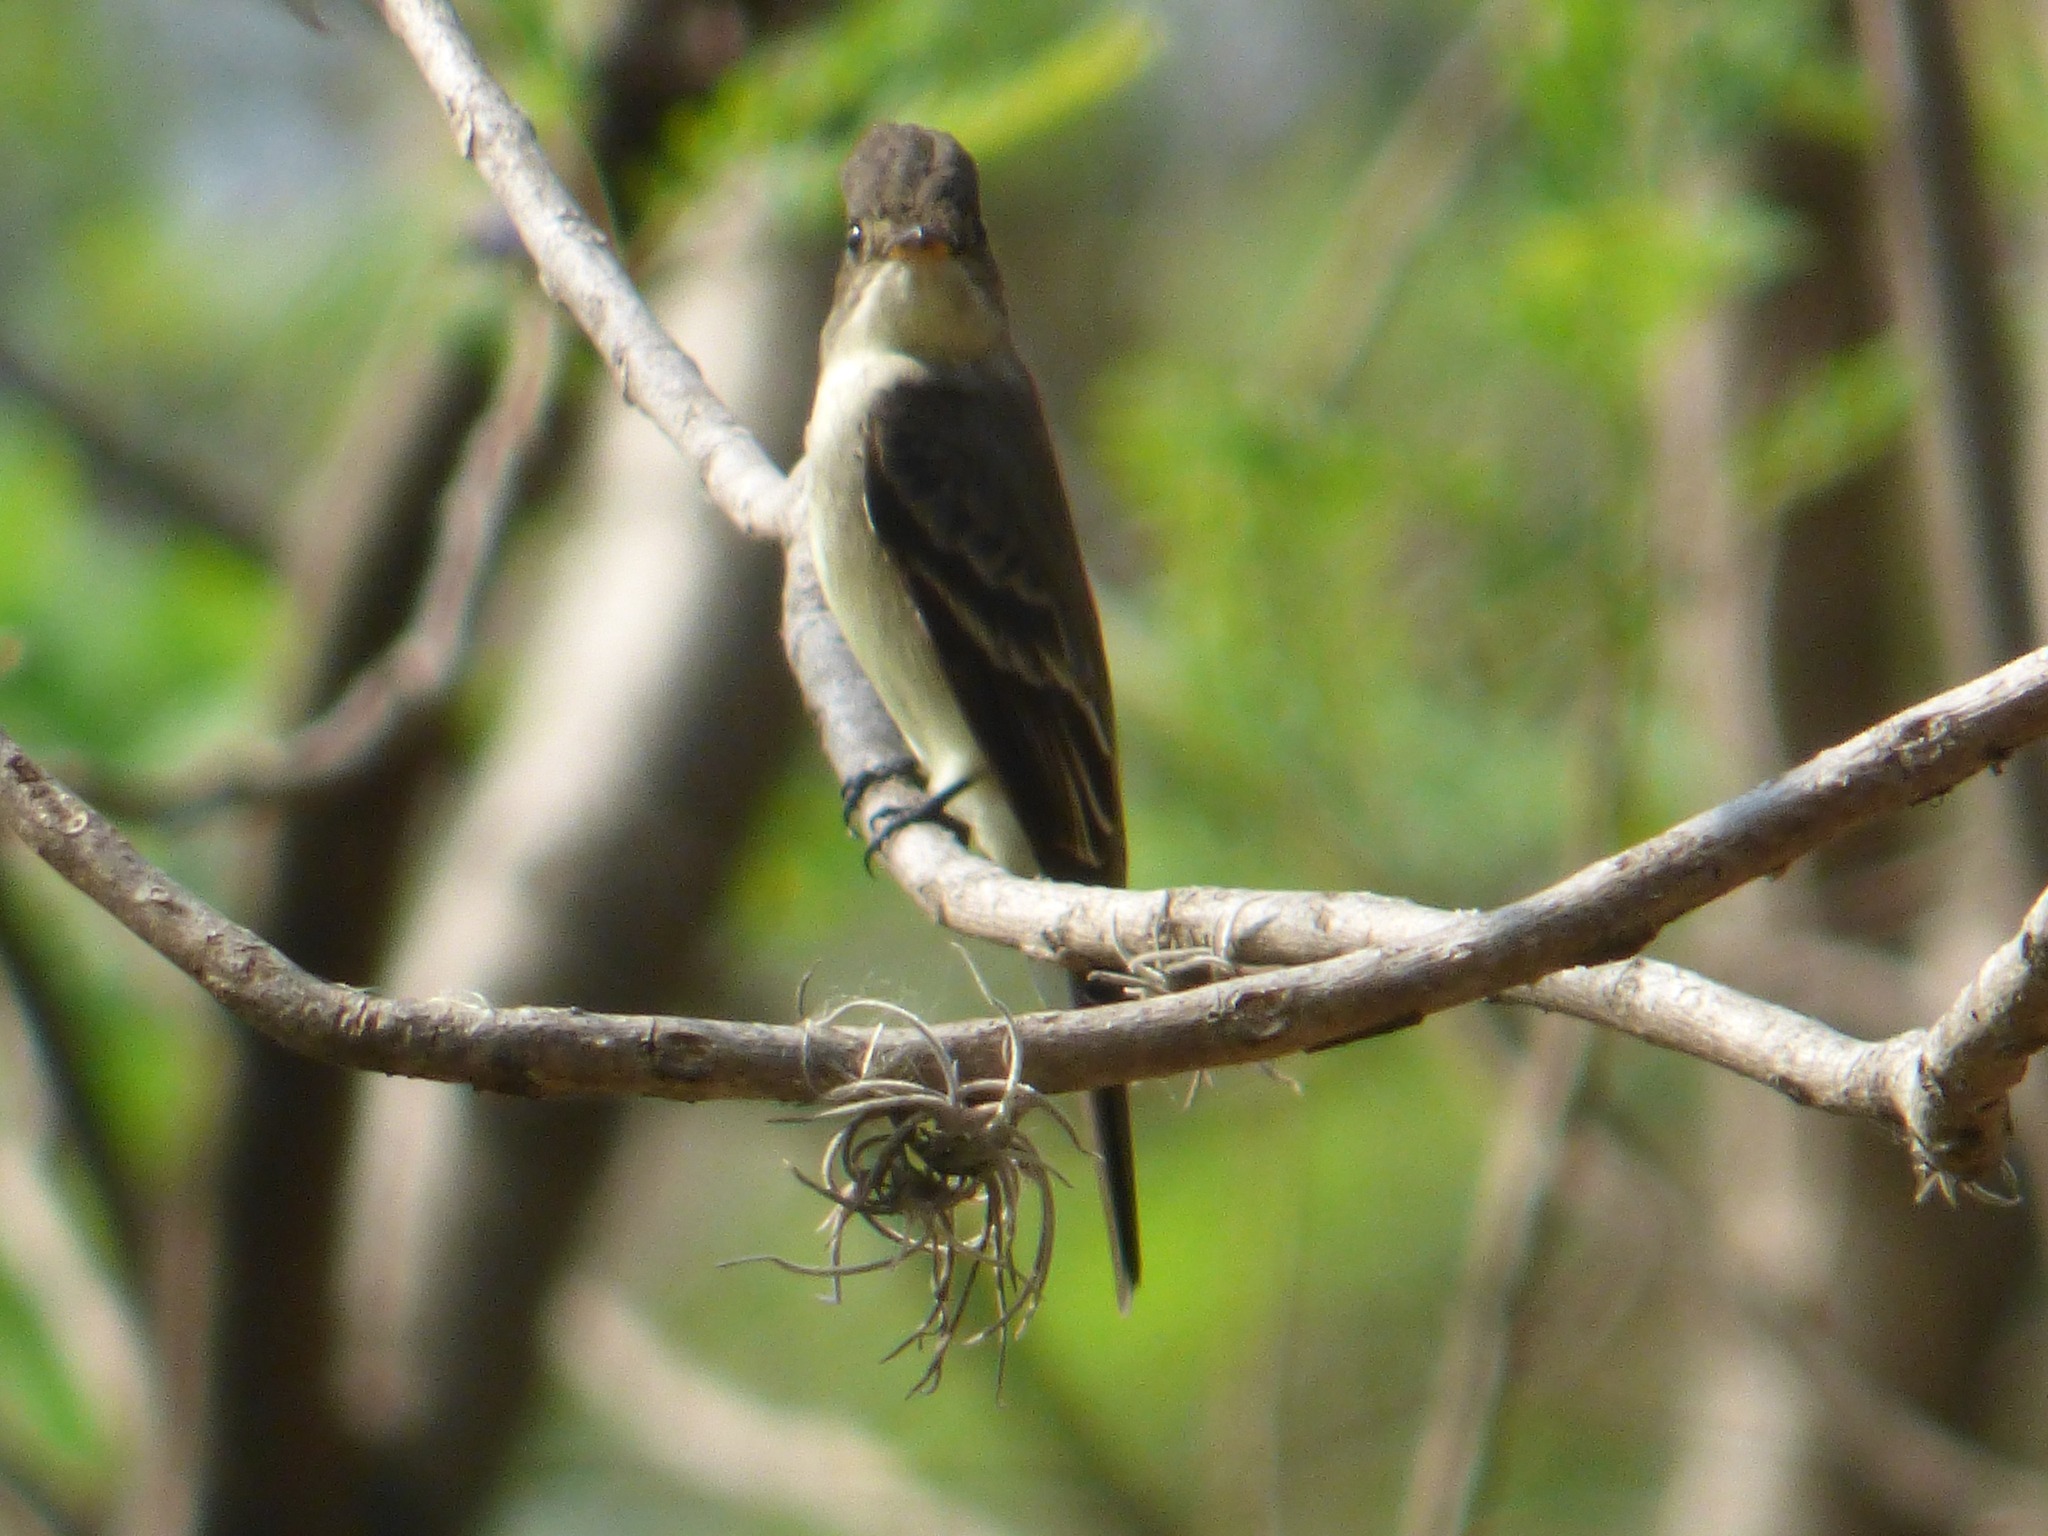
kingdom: Animalia
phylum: Chordata
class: Aves
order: Passeriformes
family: Tyrannidae
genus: Contopus
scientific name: Contopus sordidulus
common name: Western wood-pewee
